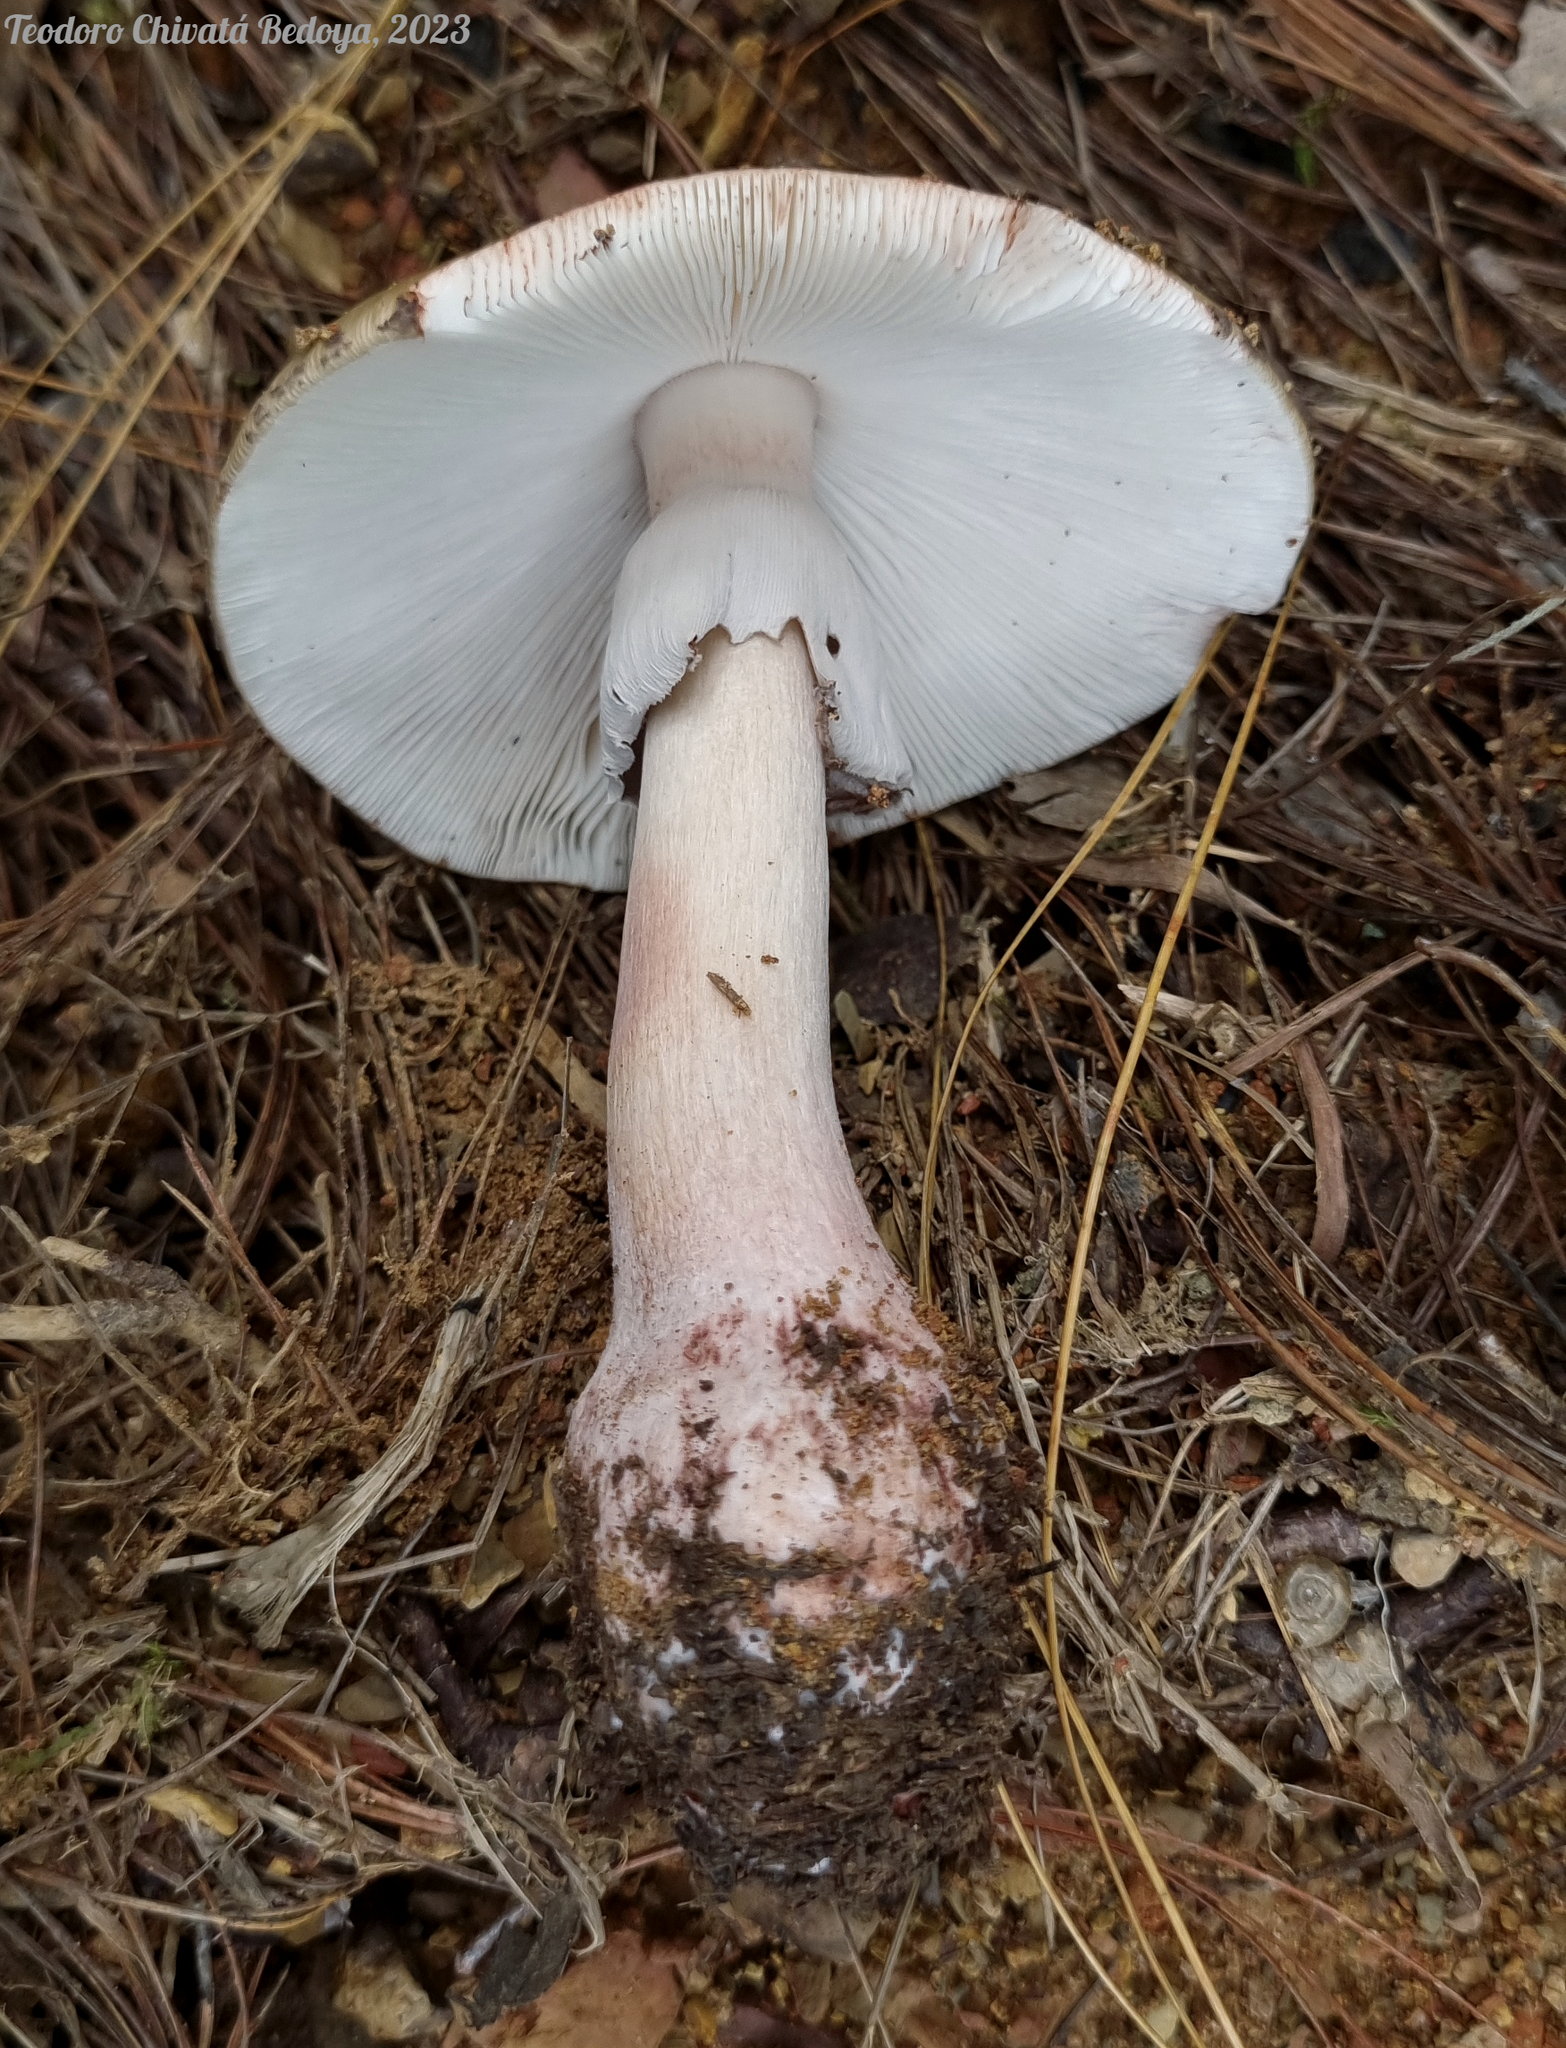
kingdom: Fungi
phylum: Basidiomycota
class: Agaricomycetes
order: Agaricales
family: Amanitaceae
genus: Amanita
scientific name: Amanita brunneolocularis
